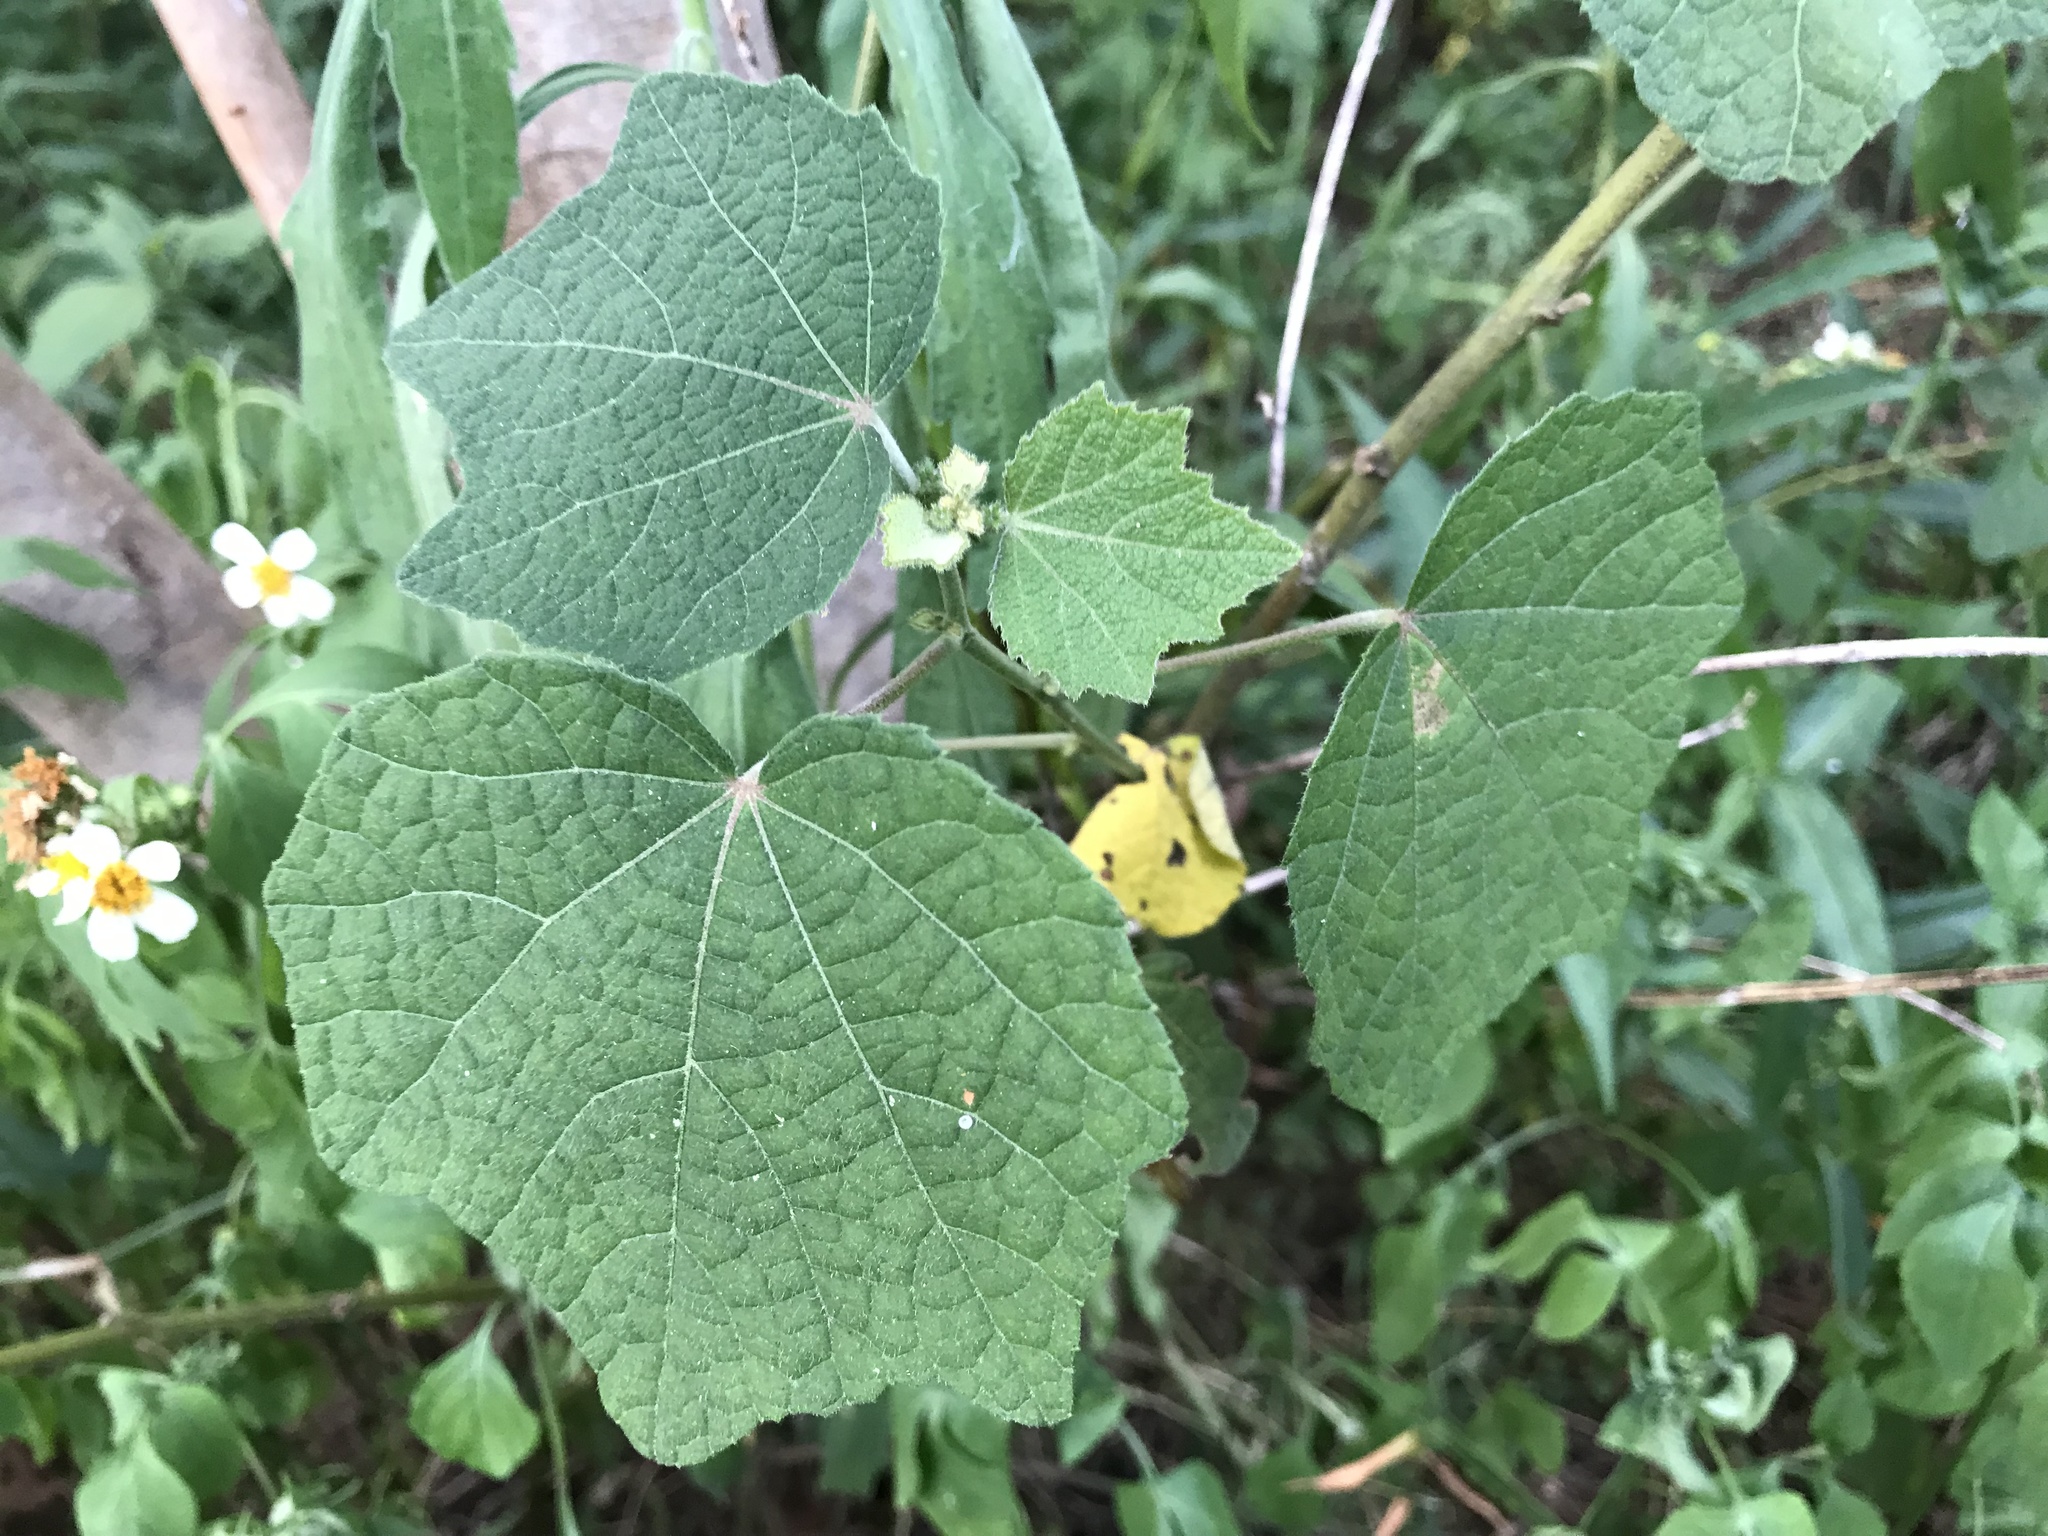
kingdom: Plantae
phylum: Tracheophyta
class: Magnoliopsida
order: Malvales
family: Malvaceae
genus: Urena
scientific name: Urena lobata
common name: Caesarweed
